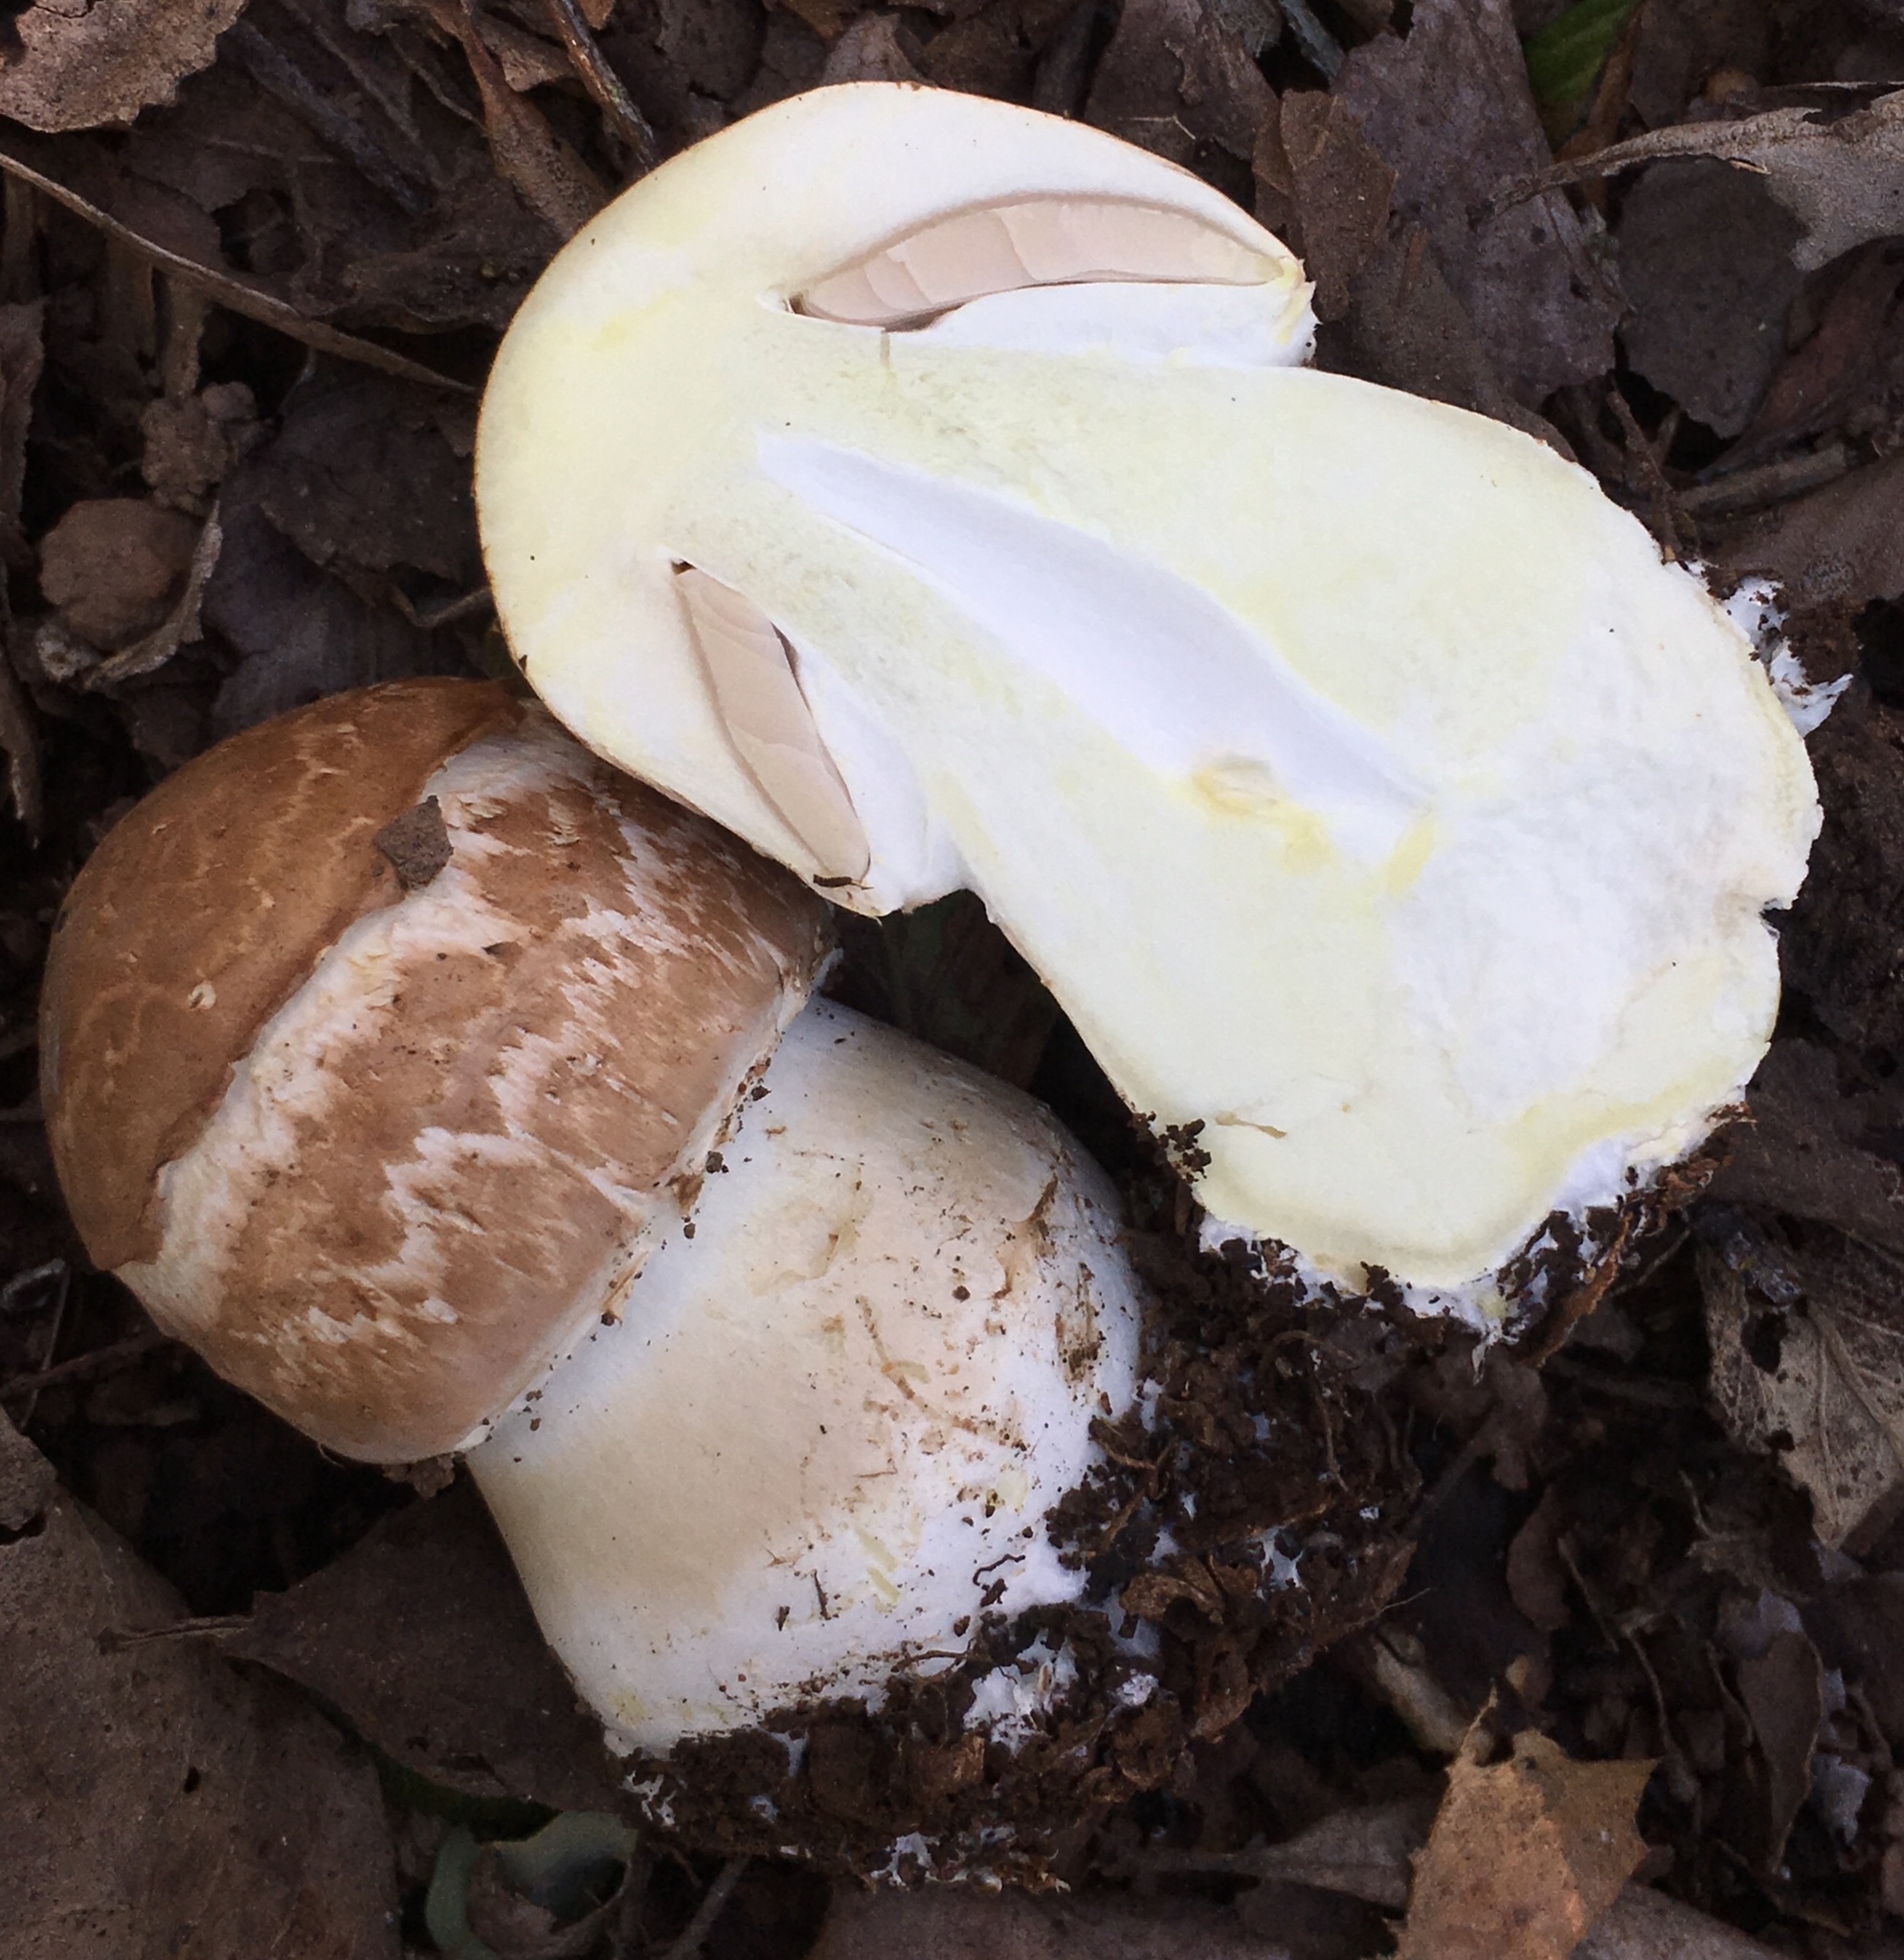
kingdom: Fungi
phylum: Basidiomycota
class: Agaricomycetes
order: Agaricales
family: Agaricaceae
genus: Agaricus
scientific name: Agaricus hondensis
